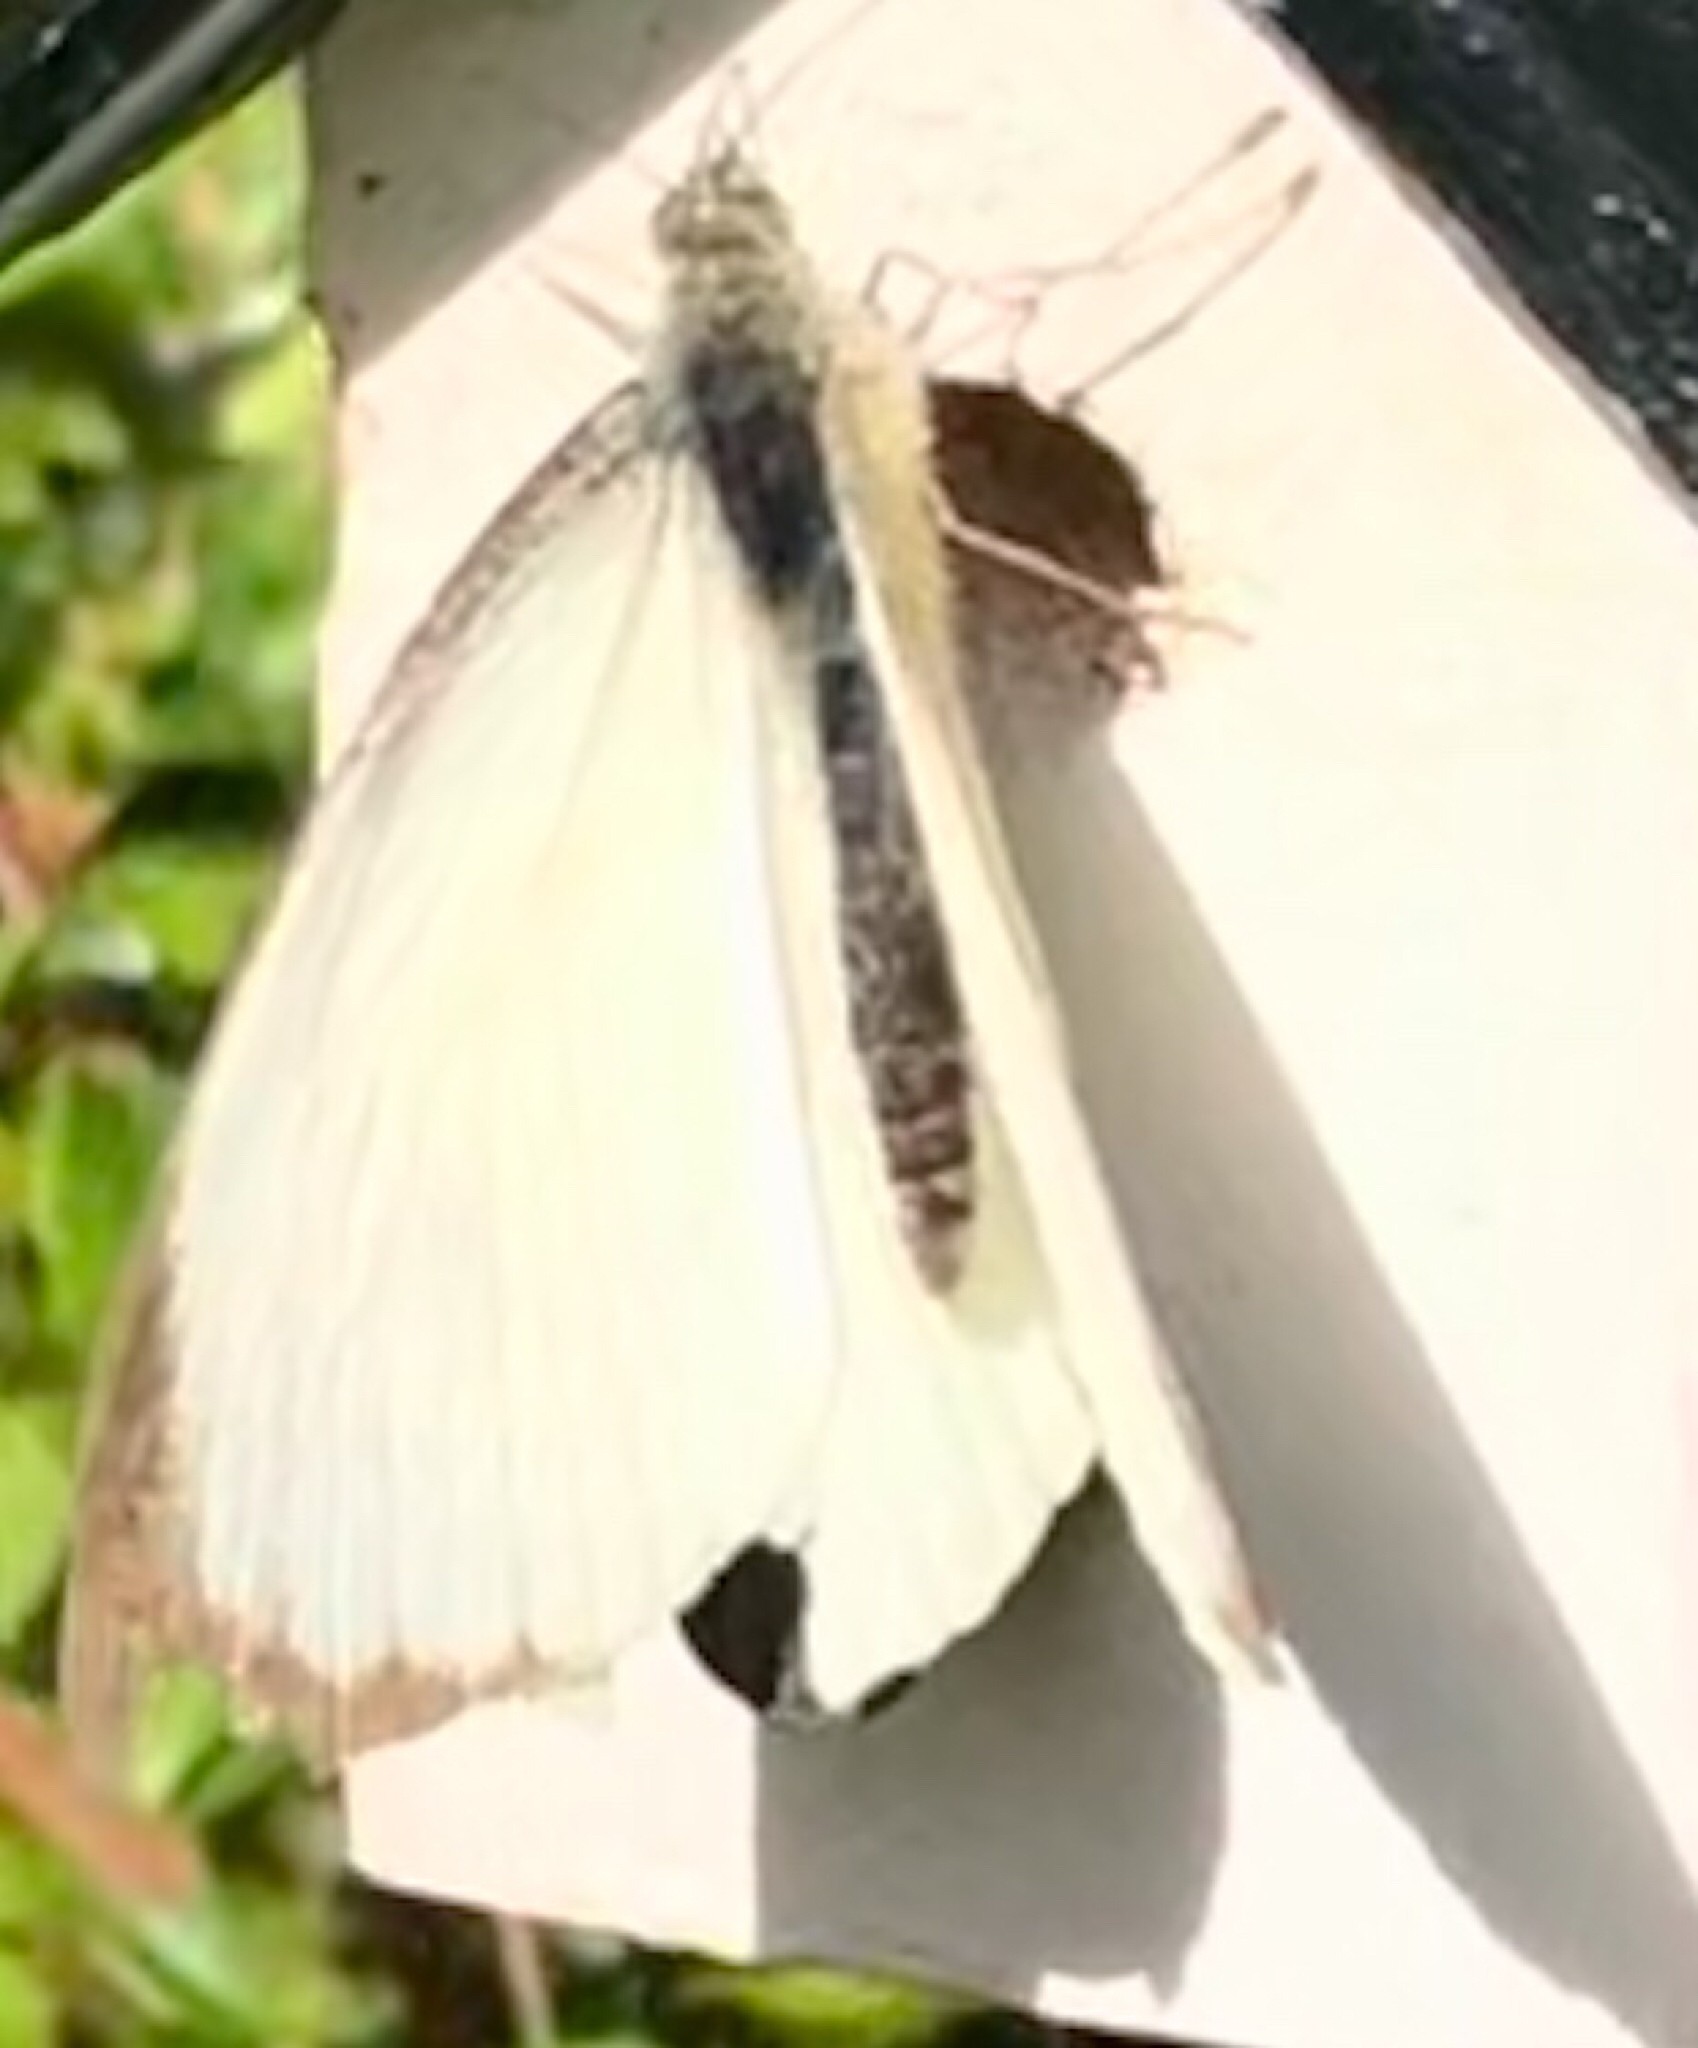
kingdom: Animalia
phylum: Arthropoda
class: Insecta
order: Lepidoptera
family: Pieridae
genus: Pieris
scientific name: Pieris brassicae
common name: Large white
